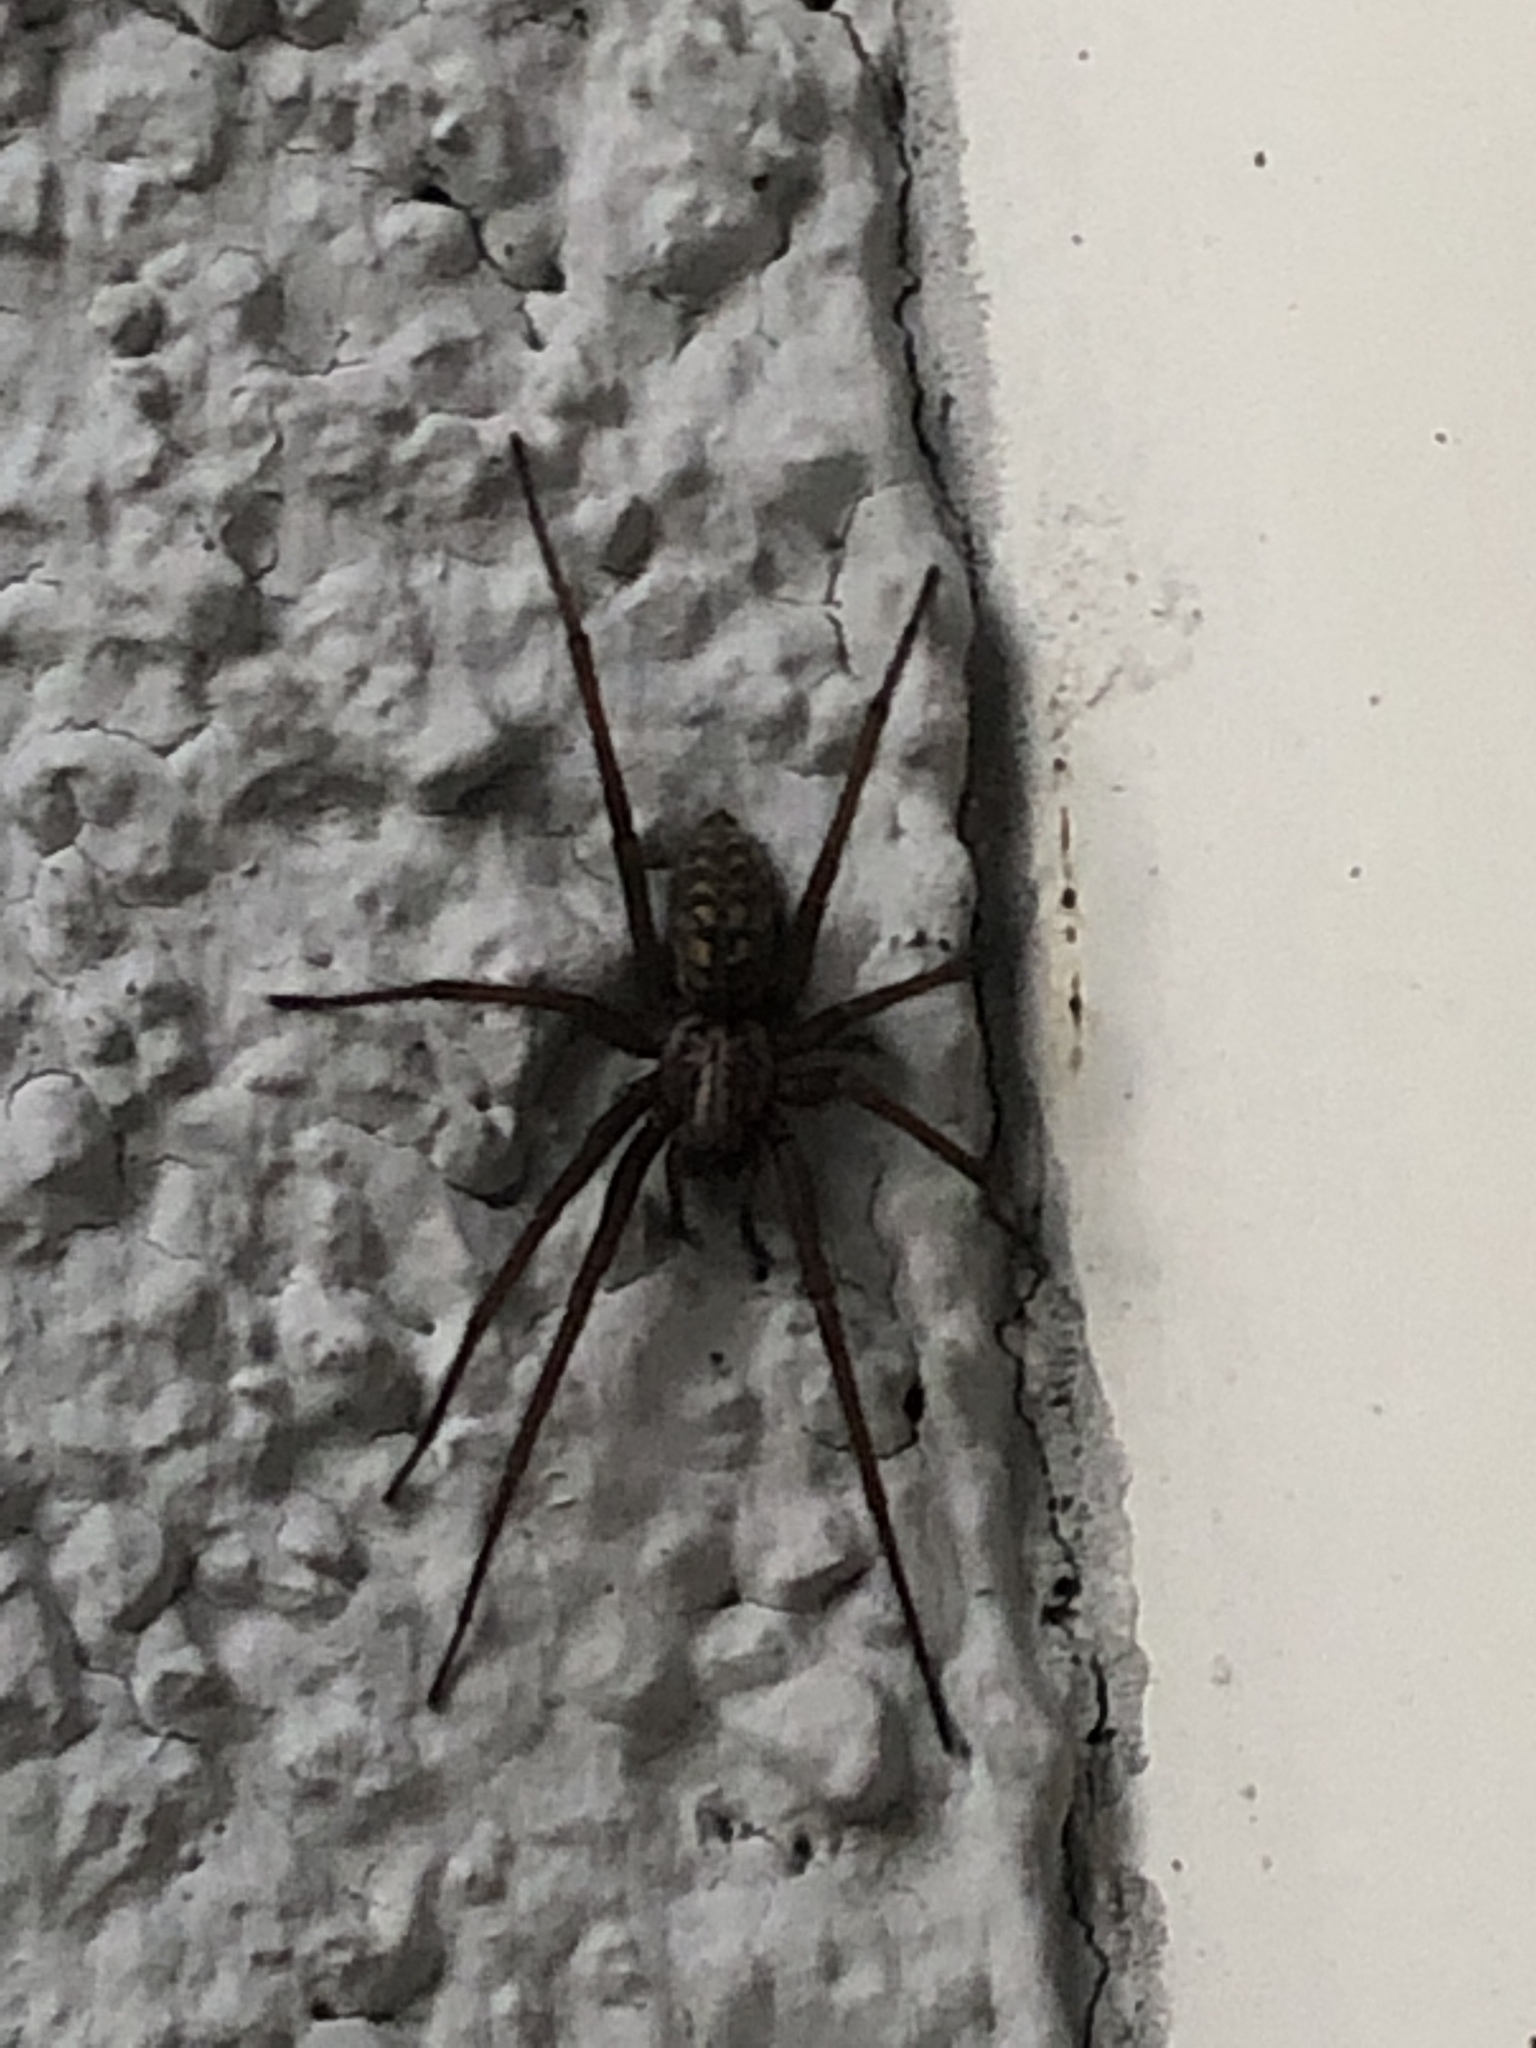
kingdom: Animalia
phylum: Arthropoda
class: Arachnida
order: Araneae
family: Agelenidae
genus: Eratigena
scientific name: Eratigena atrica
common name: Giant house spider
